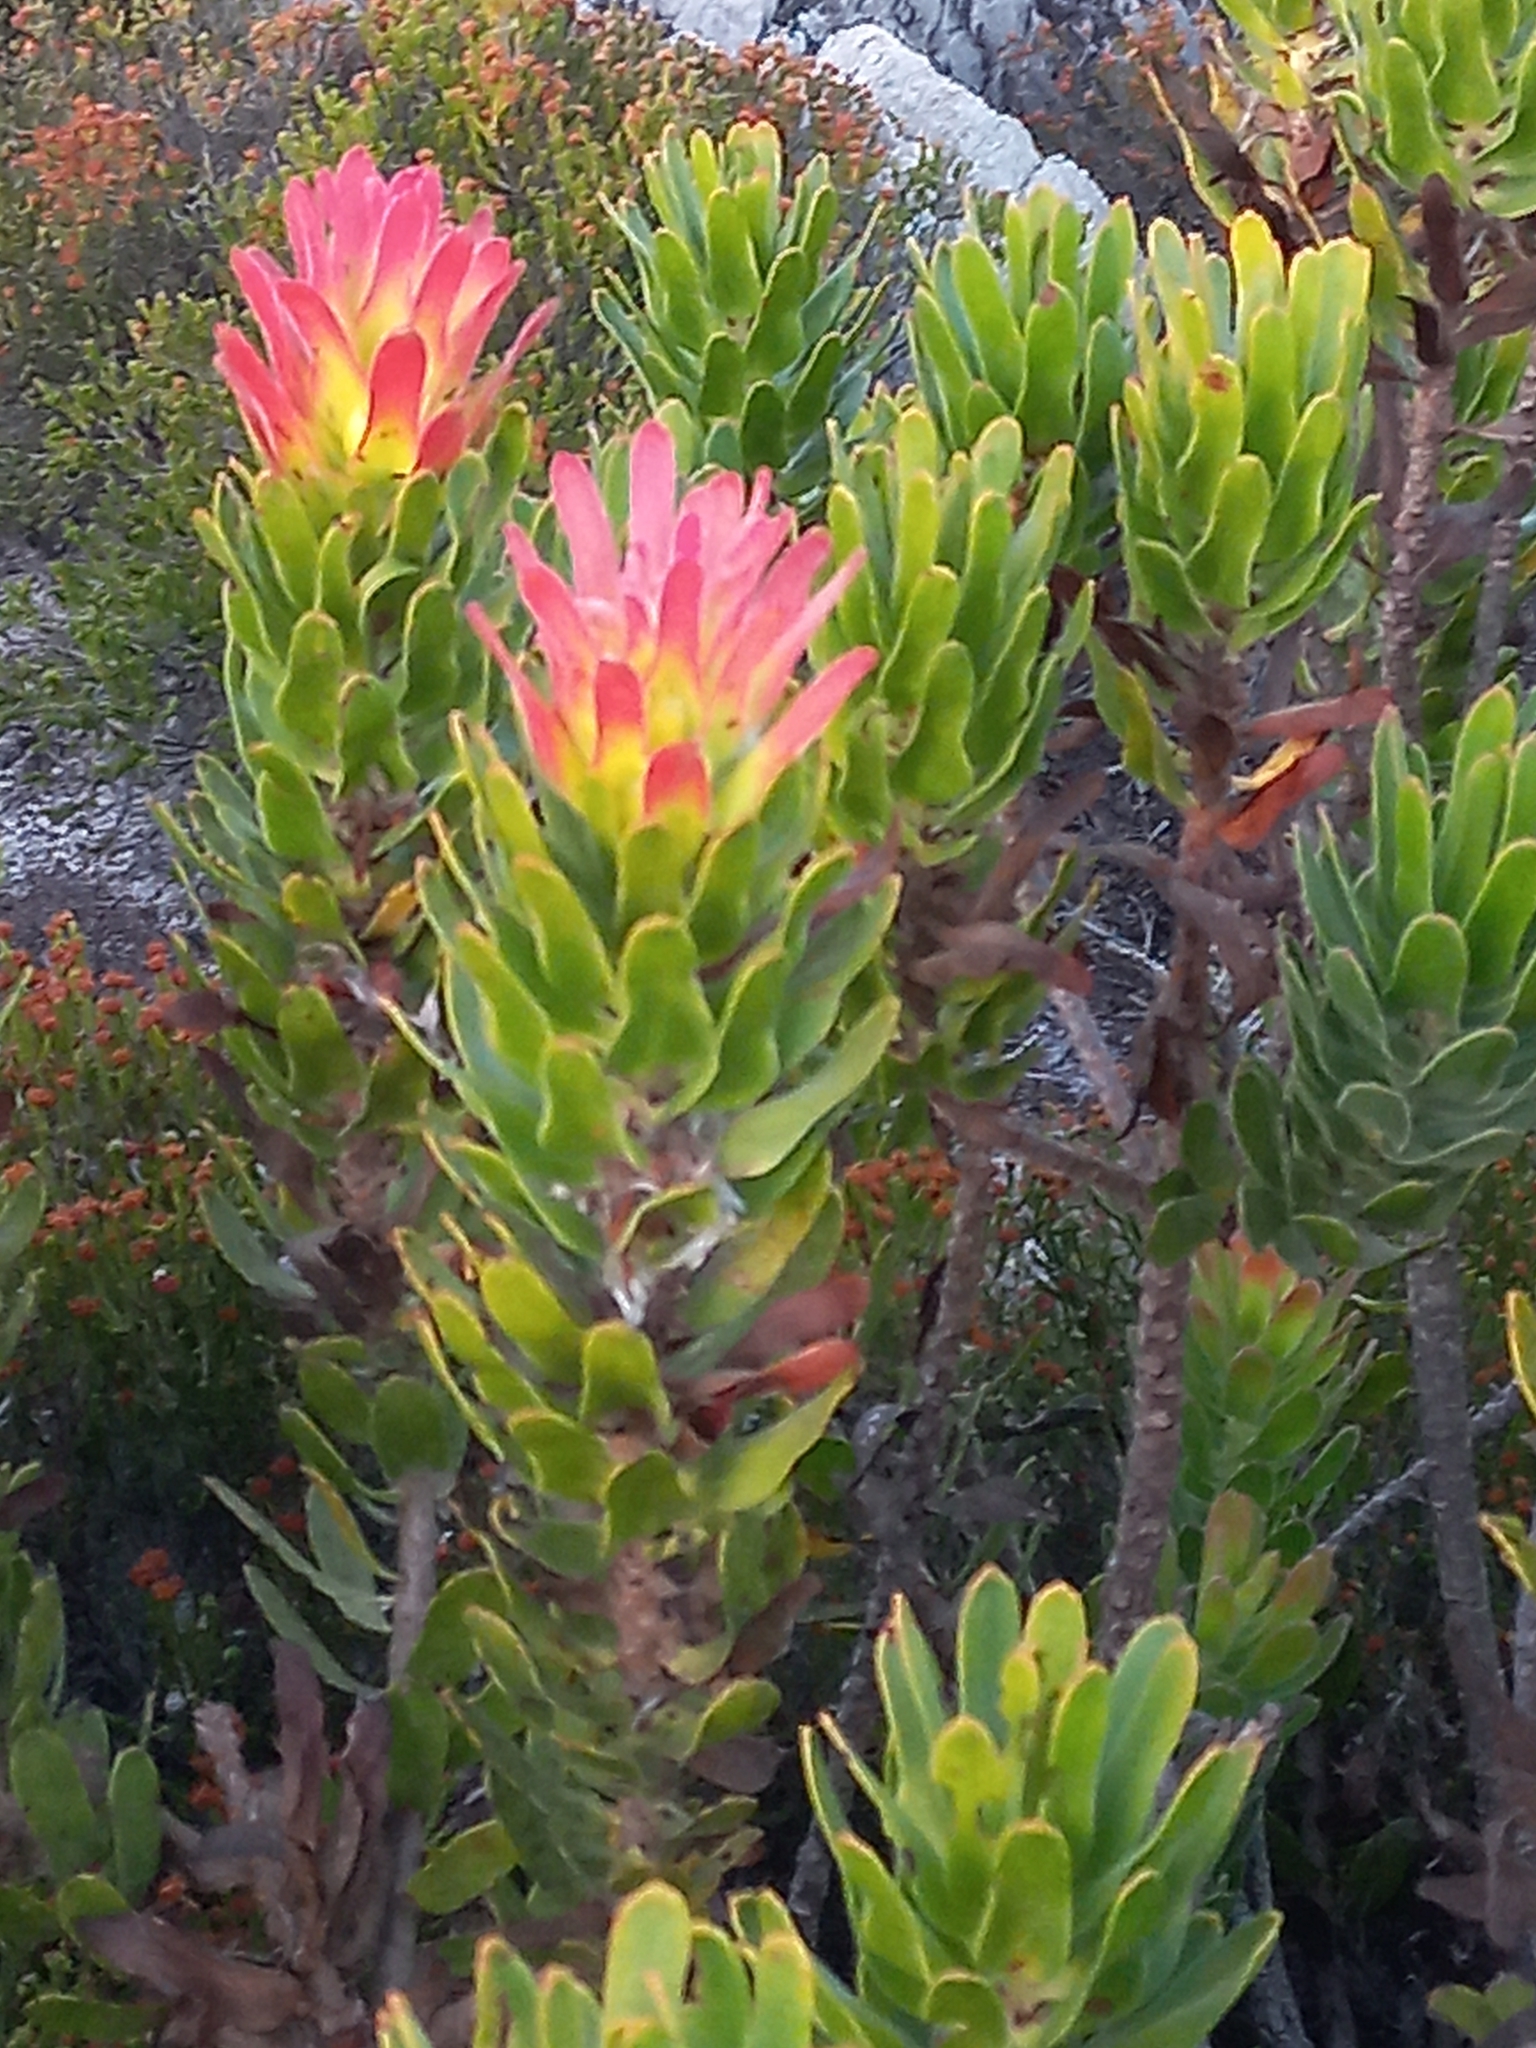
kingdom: Plantae
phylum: Tracheophyta
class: Magnoliopsida
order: Proteales
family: Proteaceae
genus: Mimetes
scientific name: Mimetes cucullatus
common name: Common pagoda
